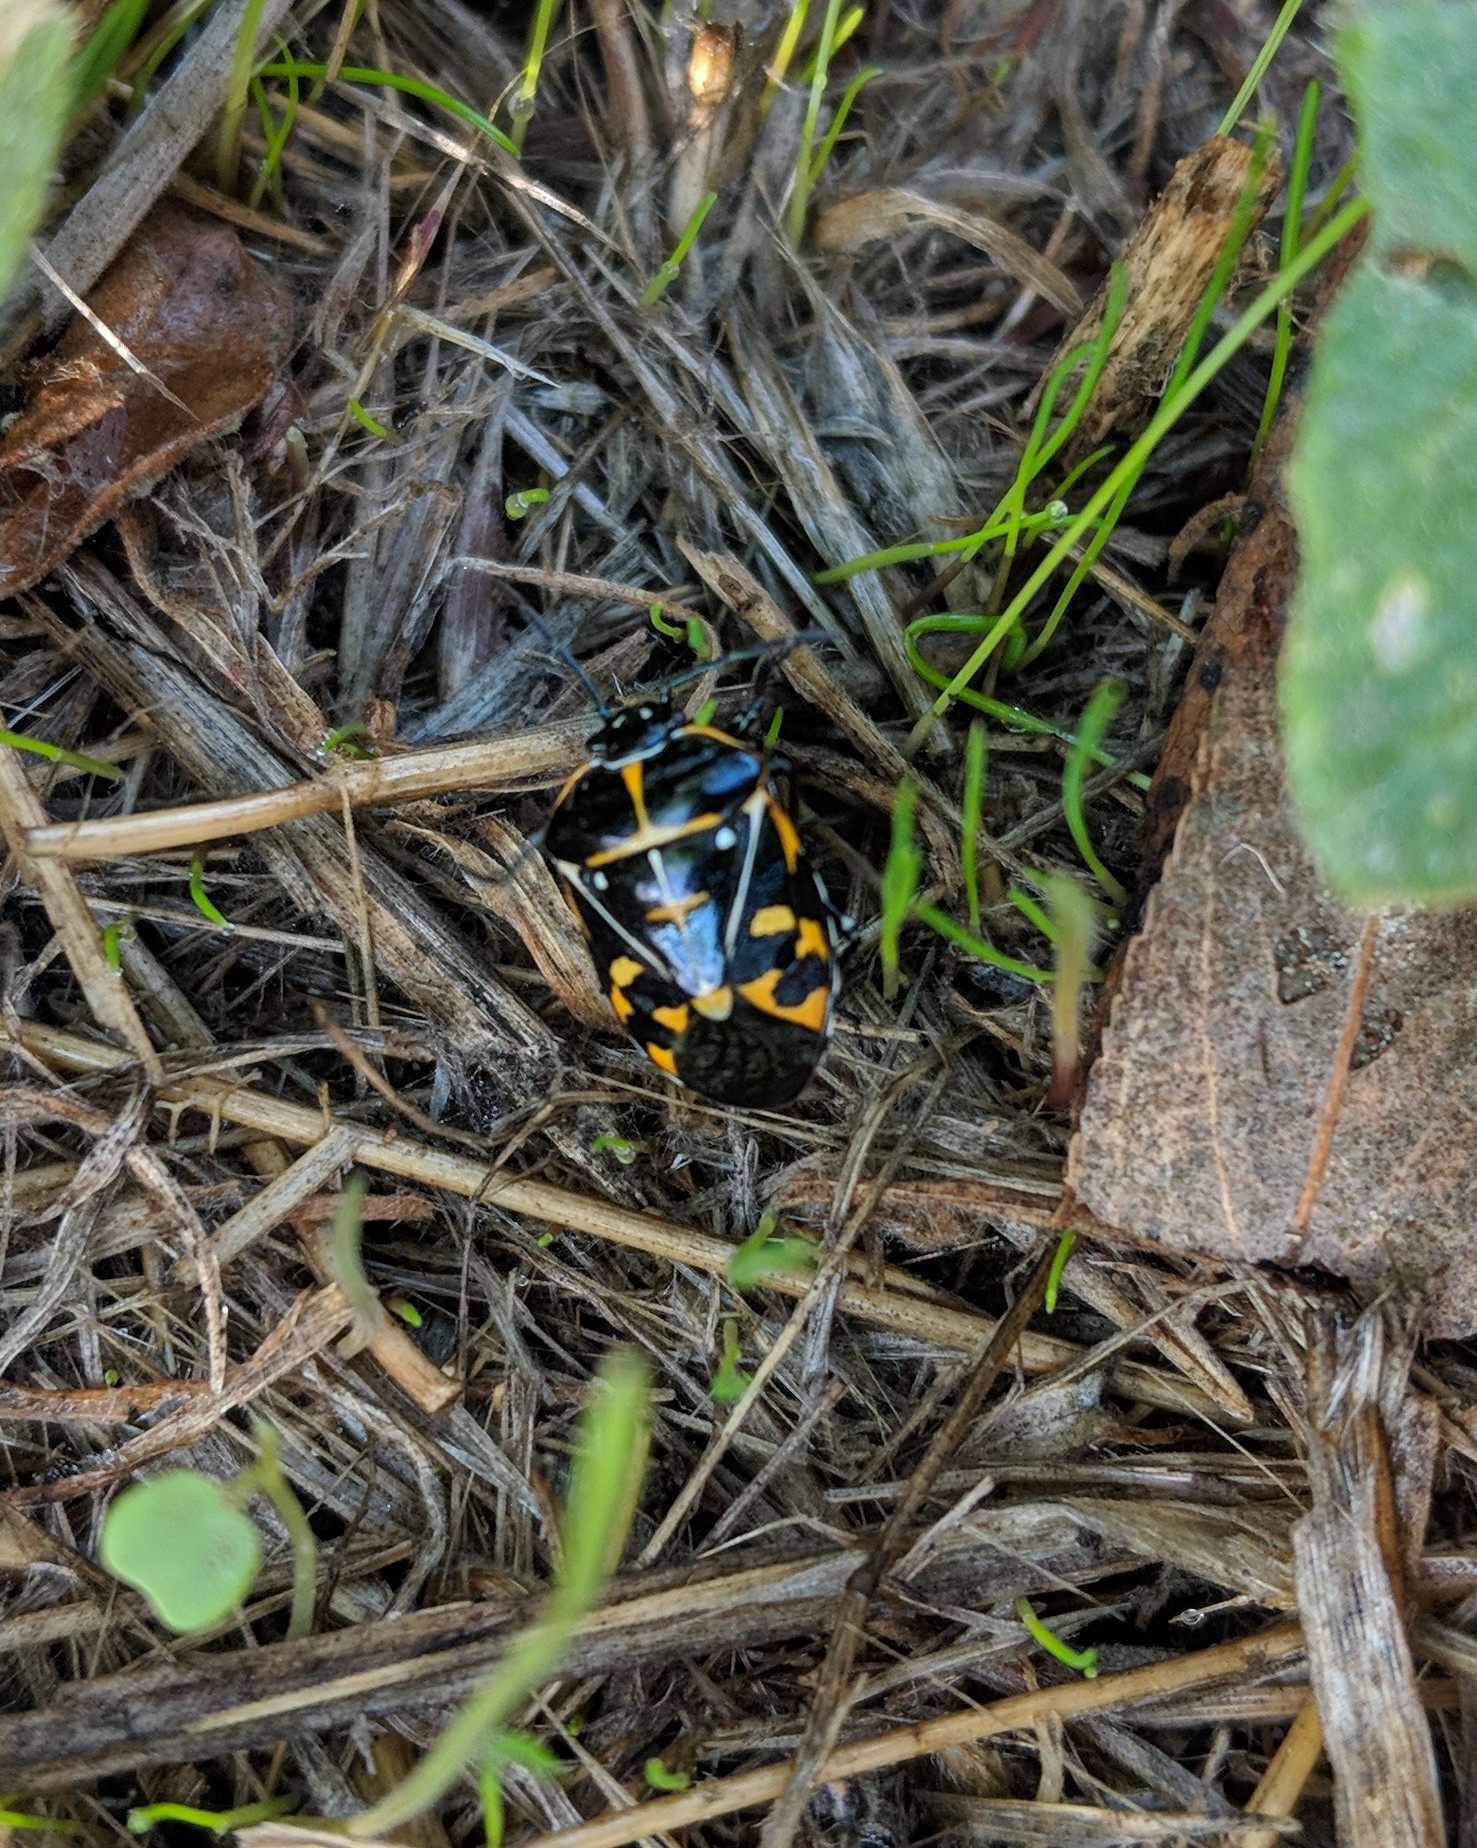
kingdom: Animalia
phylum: Arthropoda
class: Insecta
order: Hemiptera
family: Pentatomidae
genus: Murgantia
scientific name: Murgantia histrionica
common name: Harlequin bug
